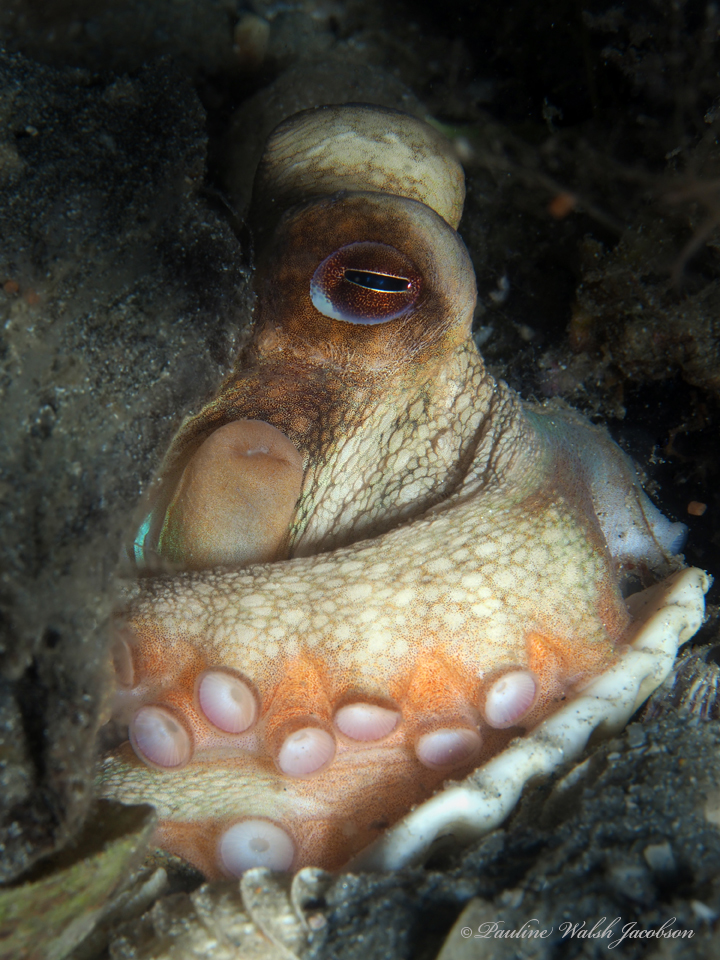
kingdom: Animalia
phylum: Mollusca
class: Cephalopoda
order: Octopoda
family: Octopodidae
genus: Octopus
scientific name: Octopus americanus
